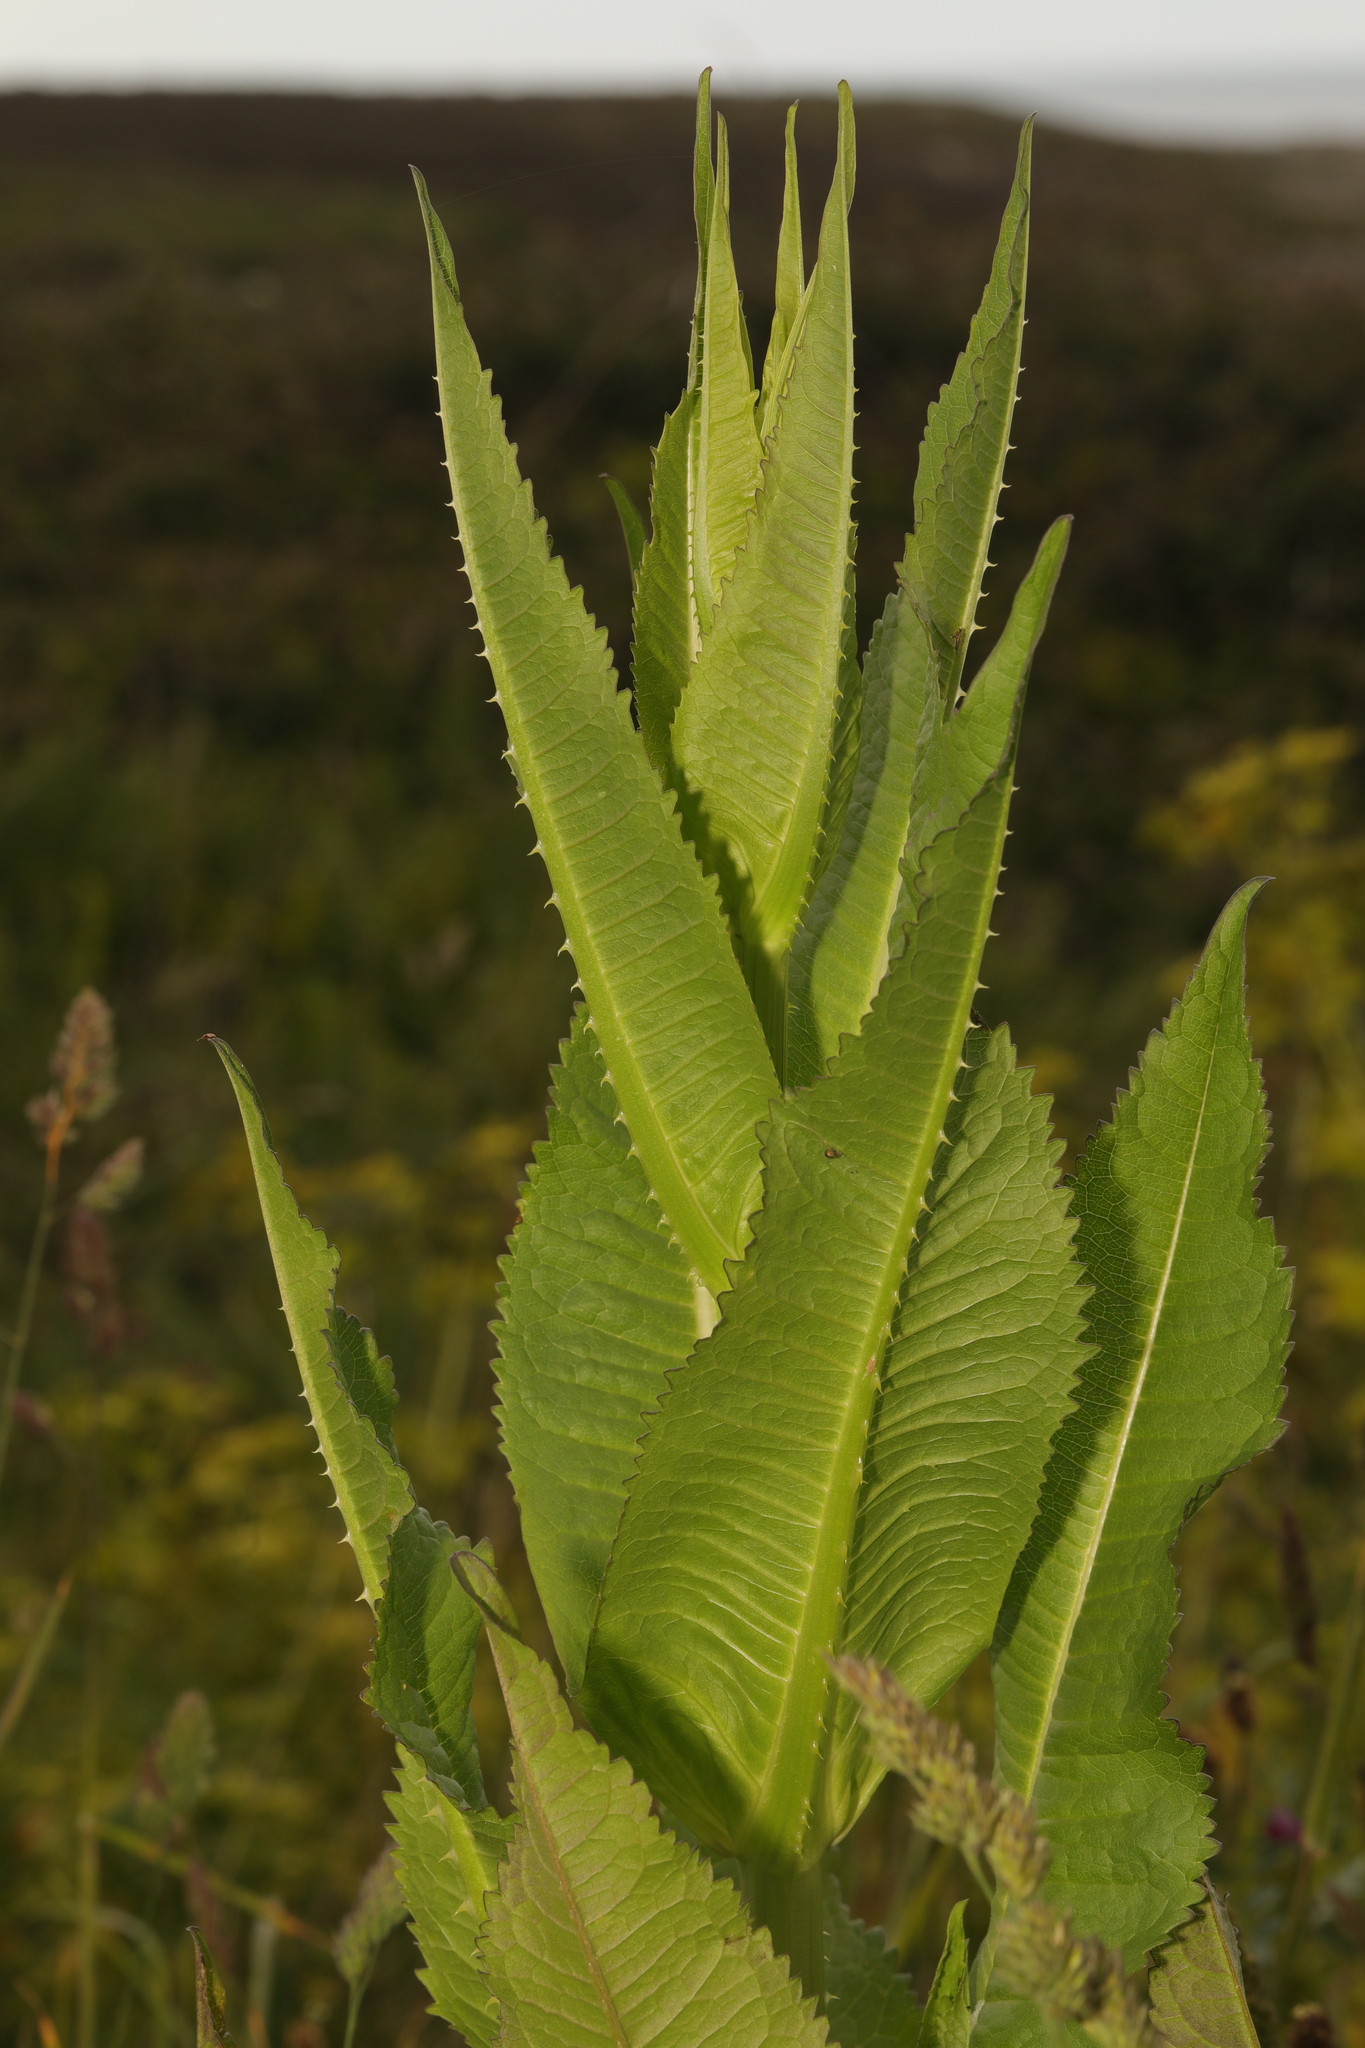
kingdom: Plantae
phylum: Tracheophyta
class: Magnoliopsida
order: Dipsacales
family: Caprifoliaceae
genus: Dipsacus
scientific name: Dipsacus fullonum
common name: Teasel
